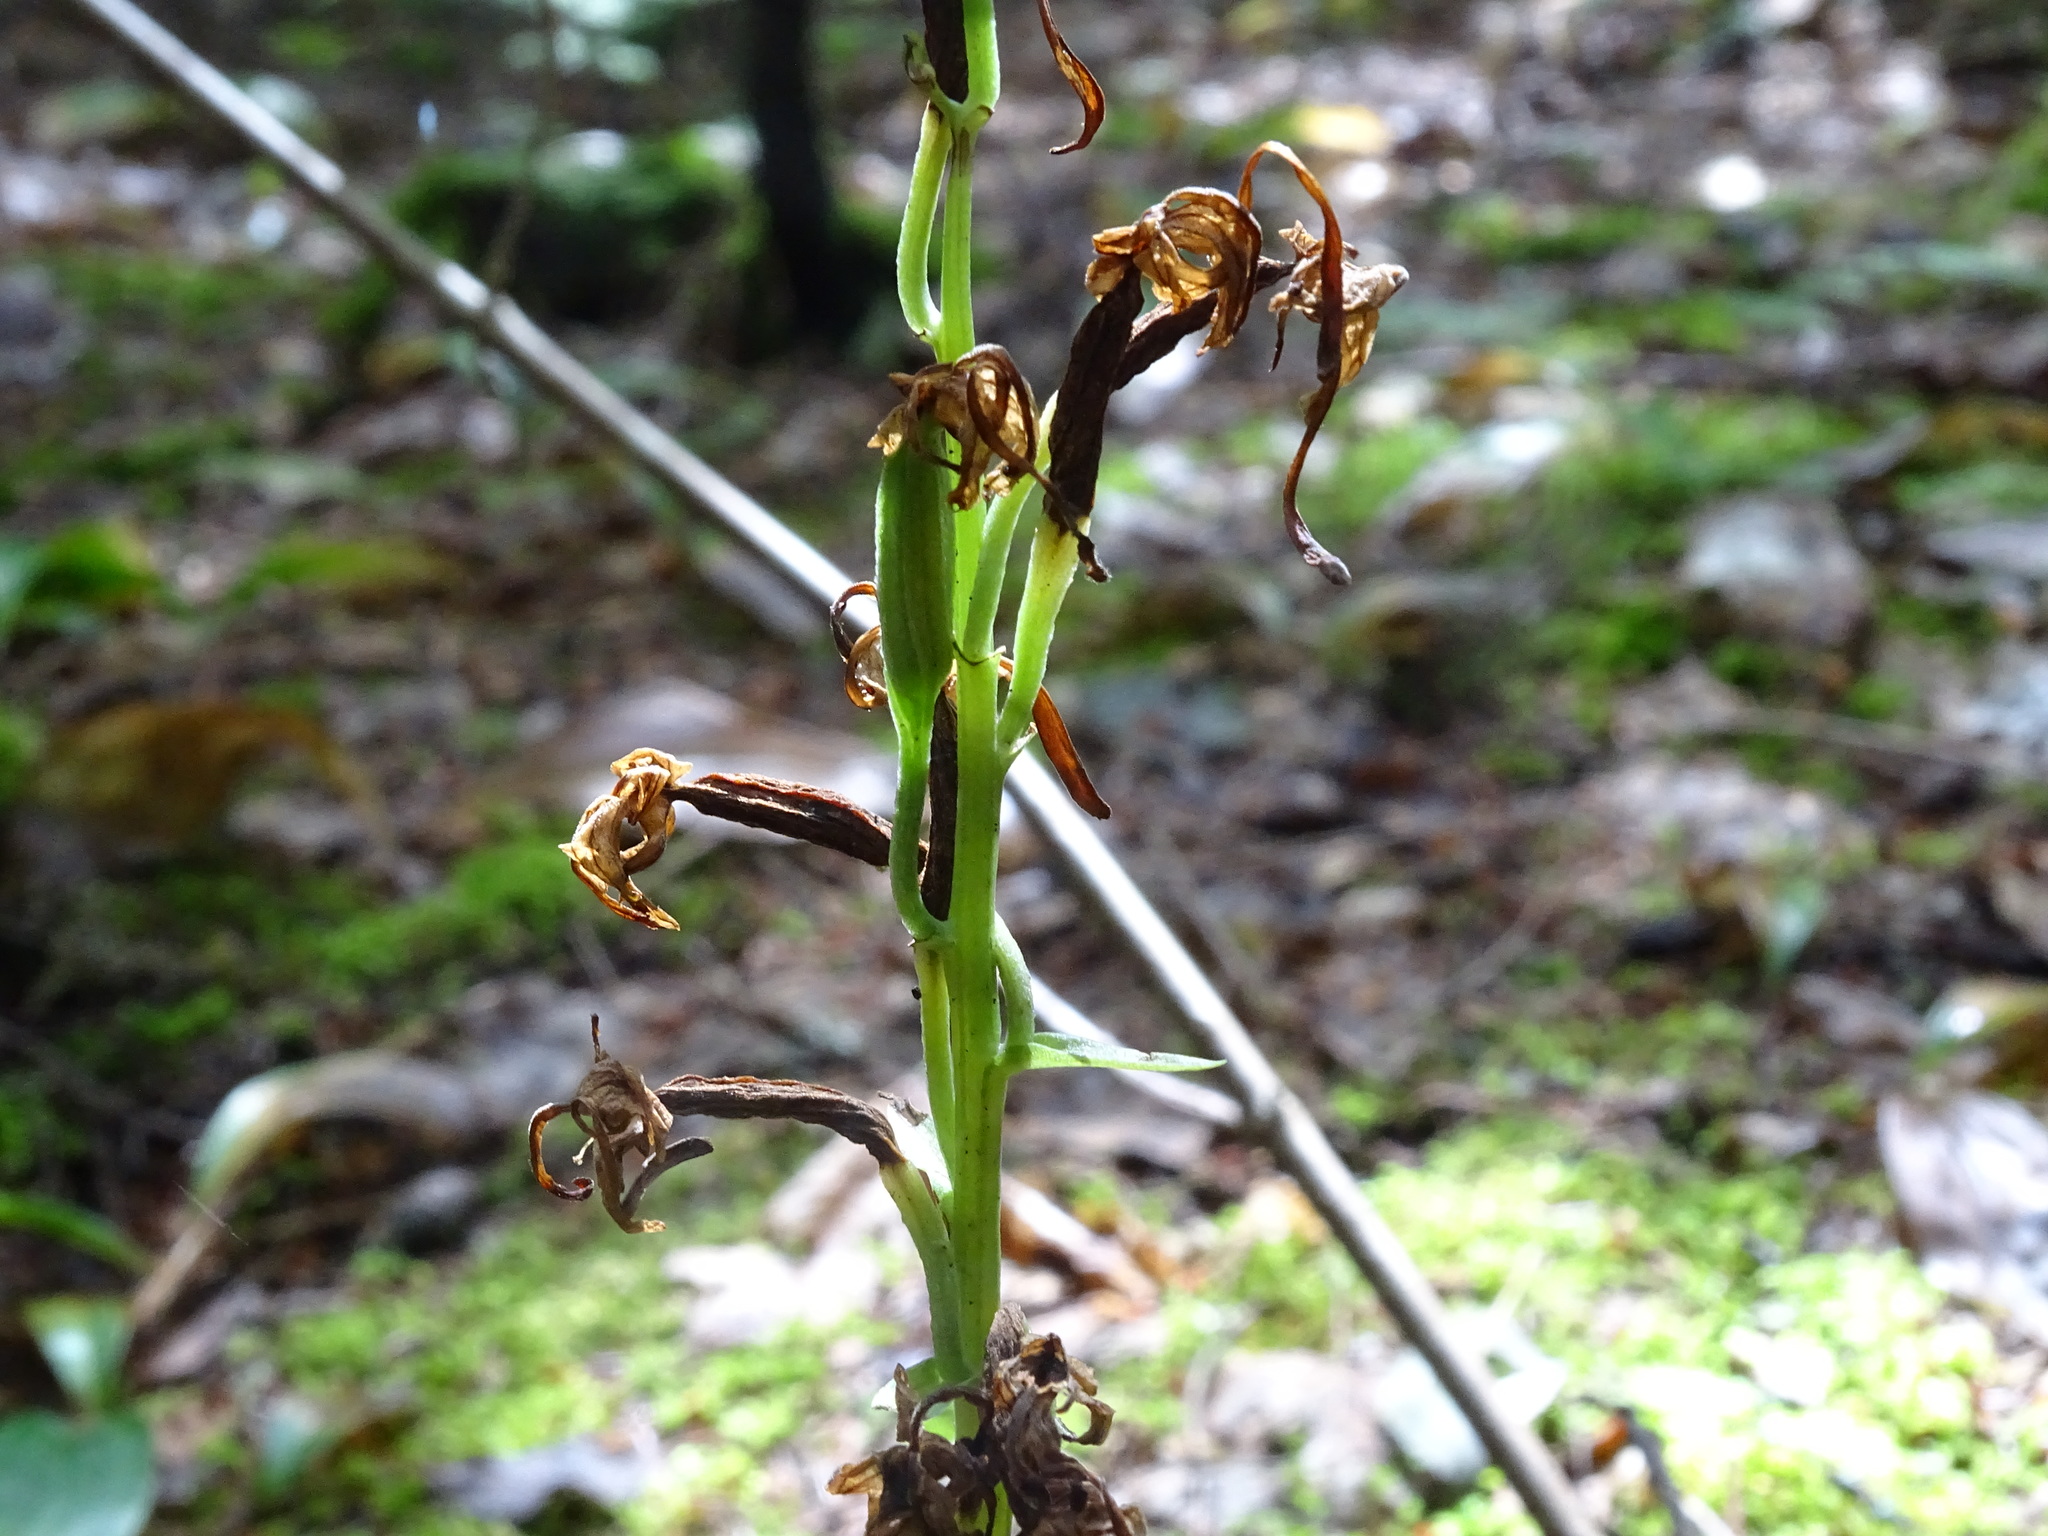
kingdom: Plantae
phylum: Tracheophyta
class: Liliopsida
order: Asparagales
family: Orchidaceae
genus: Platanthera
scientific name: Platanthera orbiculata
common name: Large round-leaved orchid
